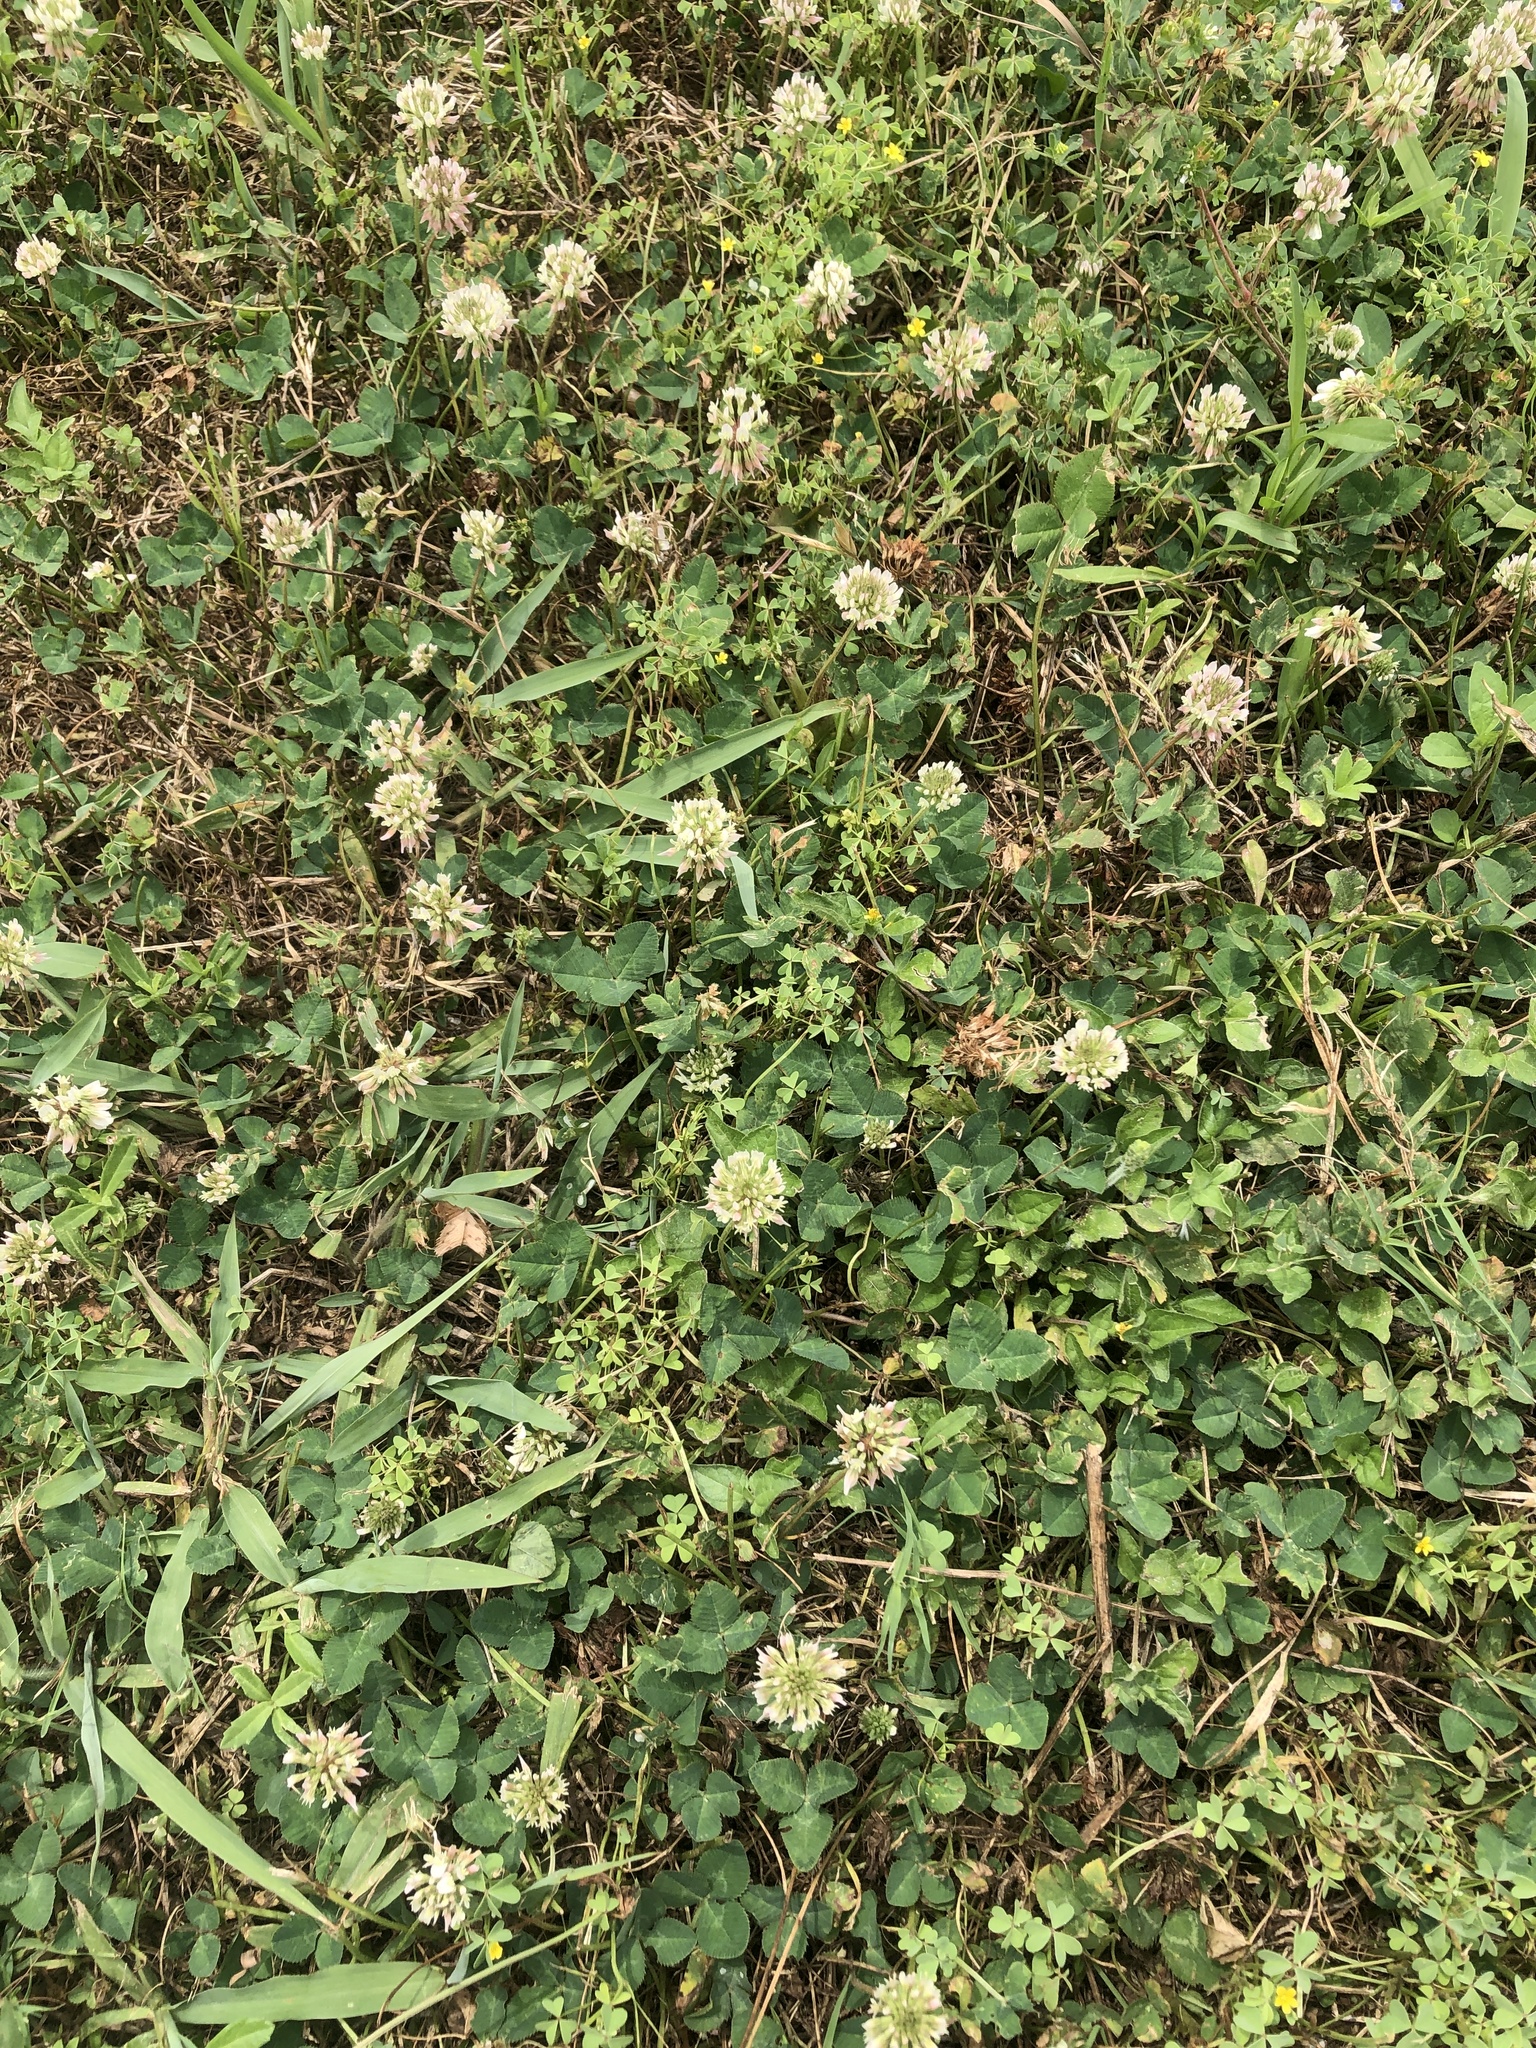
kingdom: Plantae
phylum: Tracheophyta
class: Magnoliopsida
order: Fabales
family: Fabaceae
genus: Trifolium
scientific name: Trifolium repens
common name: White clover
